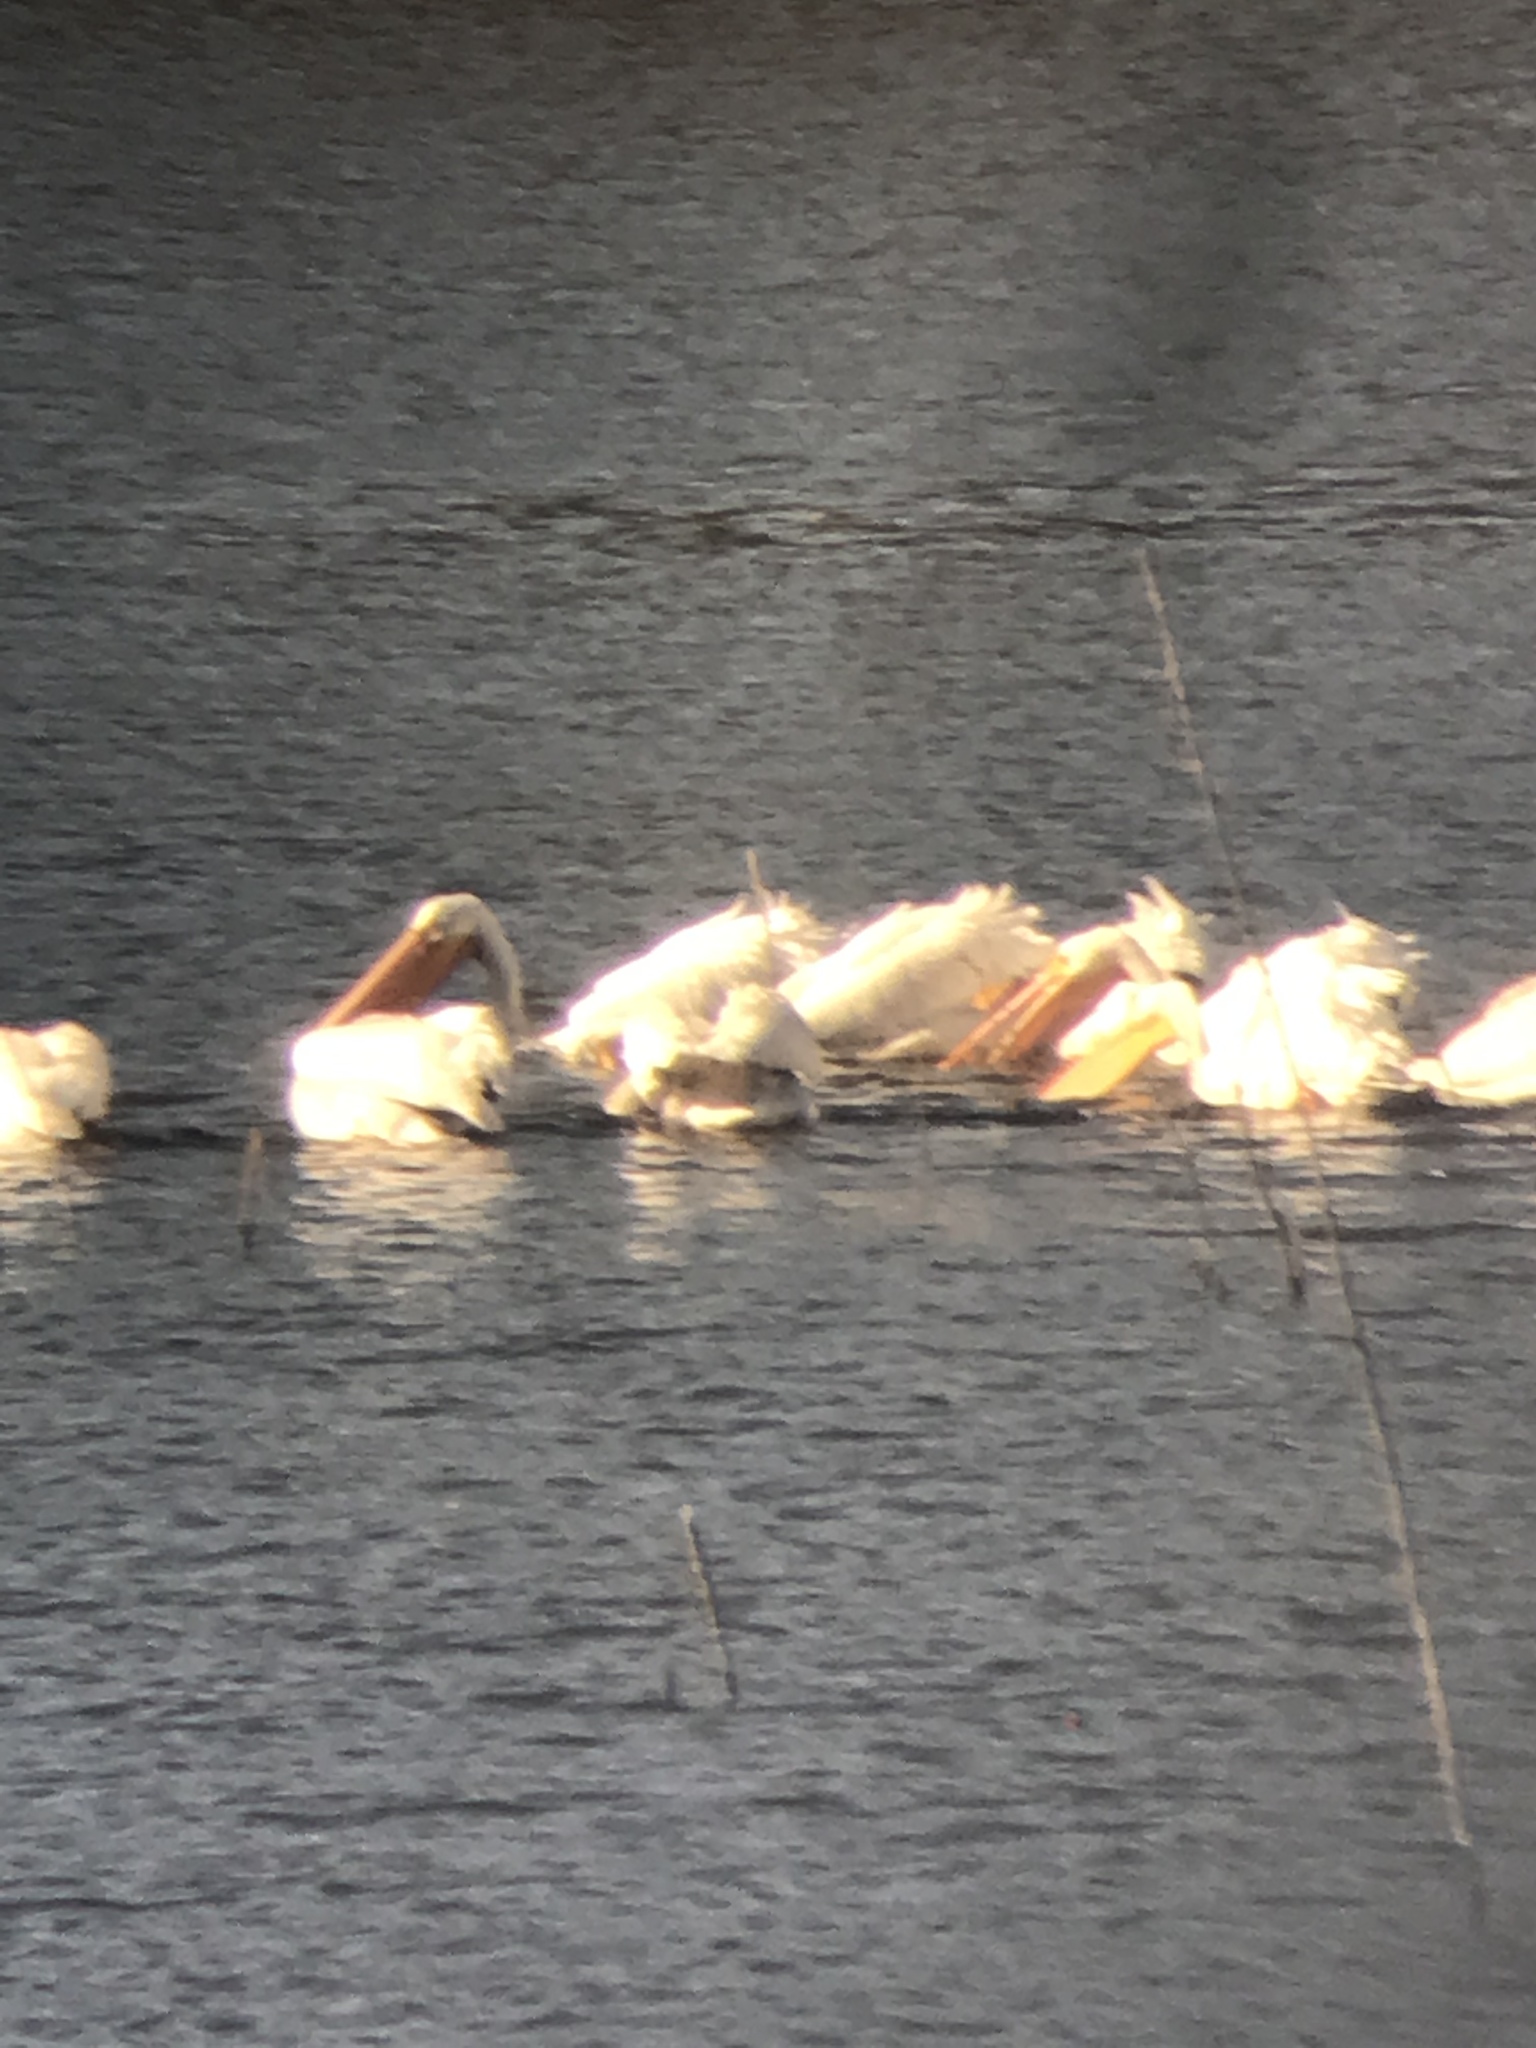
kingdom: Animalia
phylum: Chordata
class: Aves
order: Pelecaniformes
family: Pelecanidae
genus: Pelecanus
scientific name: Pelecanus erythrorhynchos
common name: American white pelican
